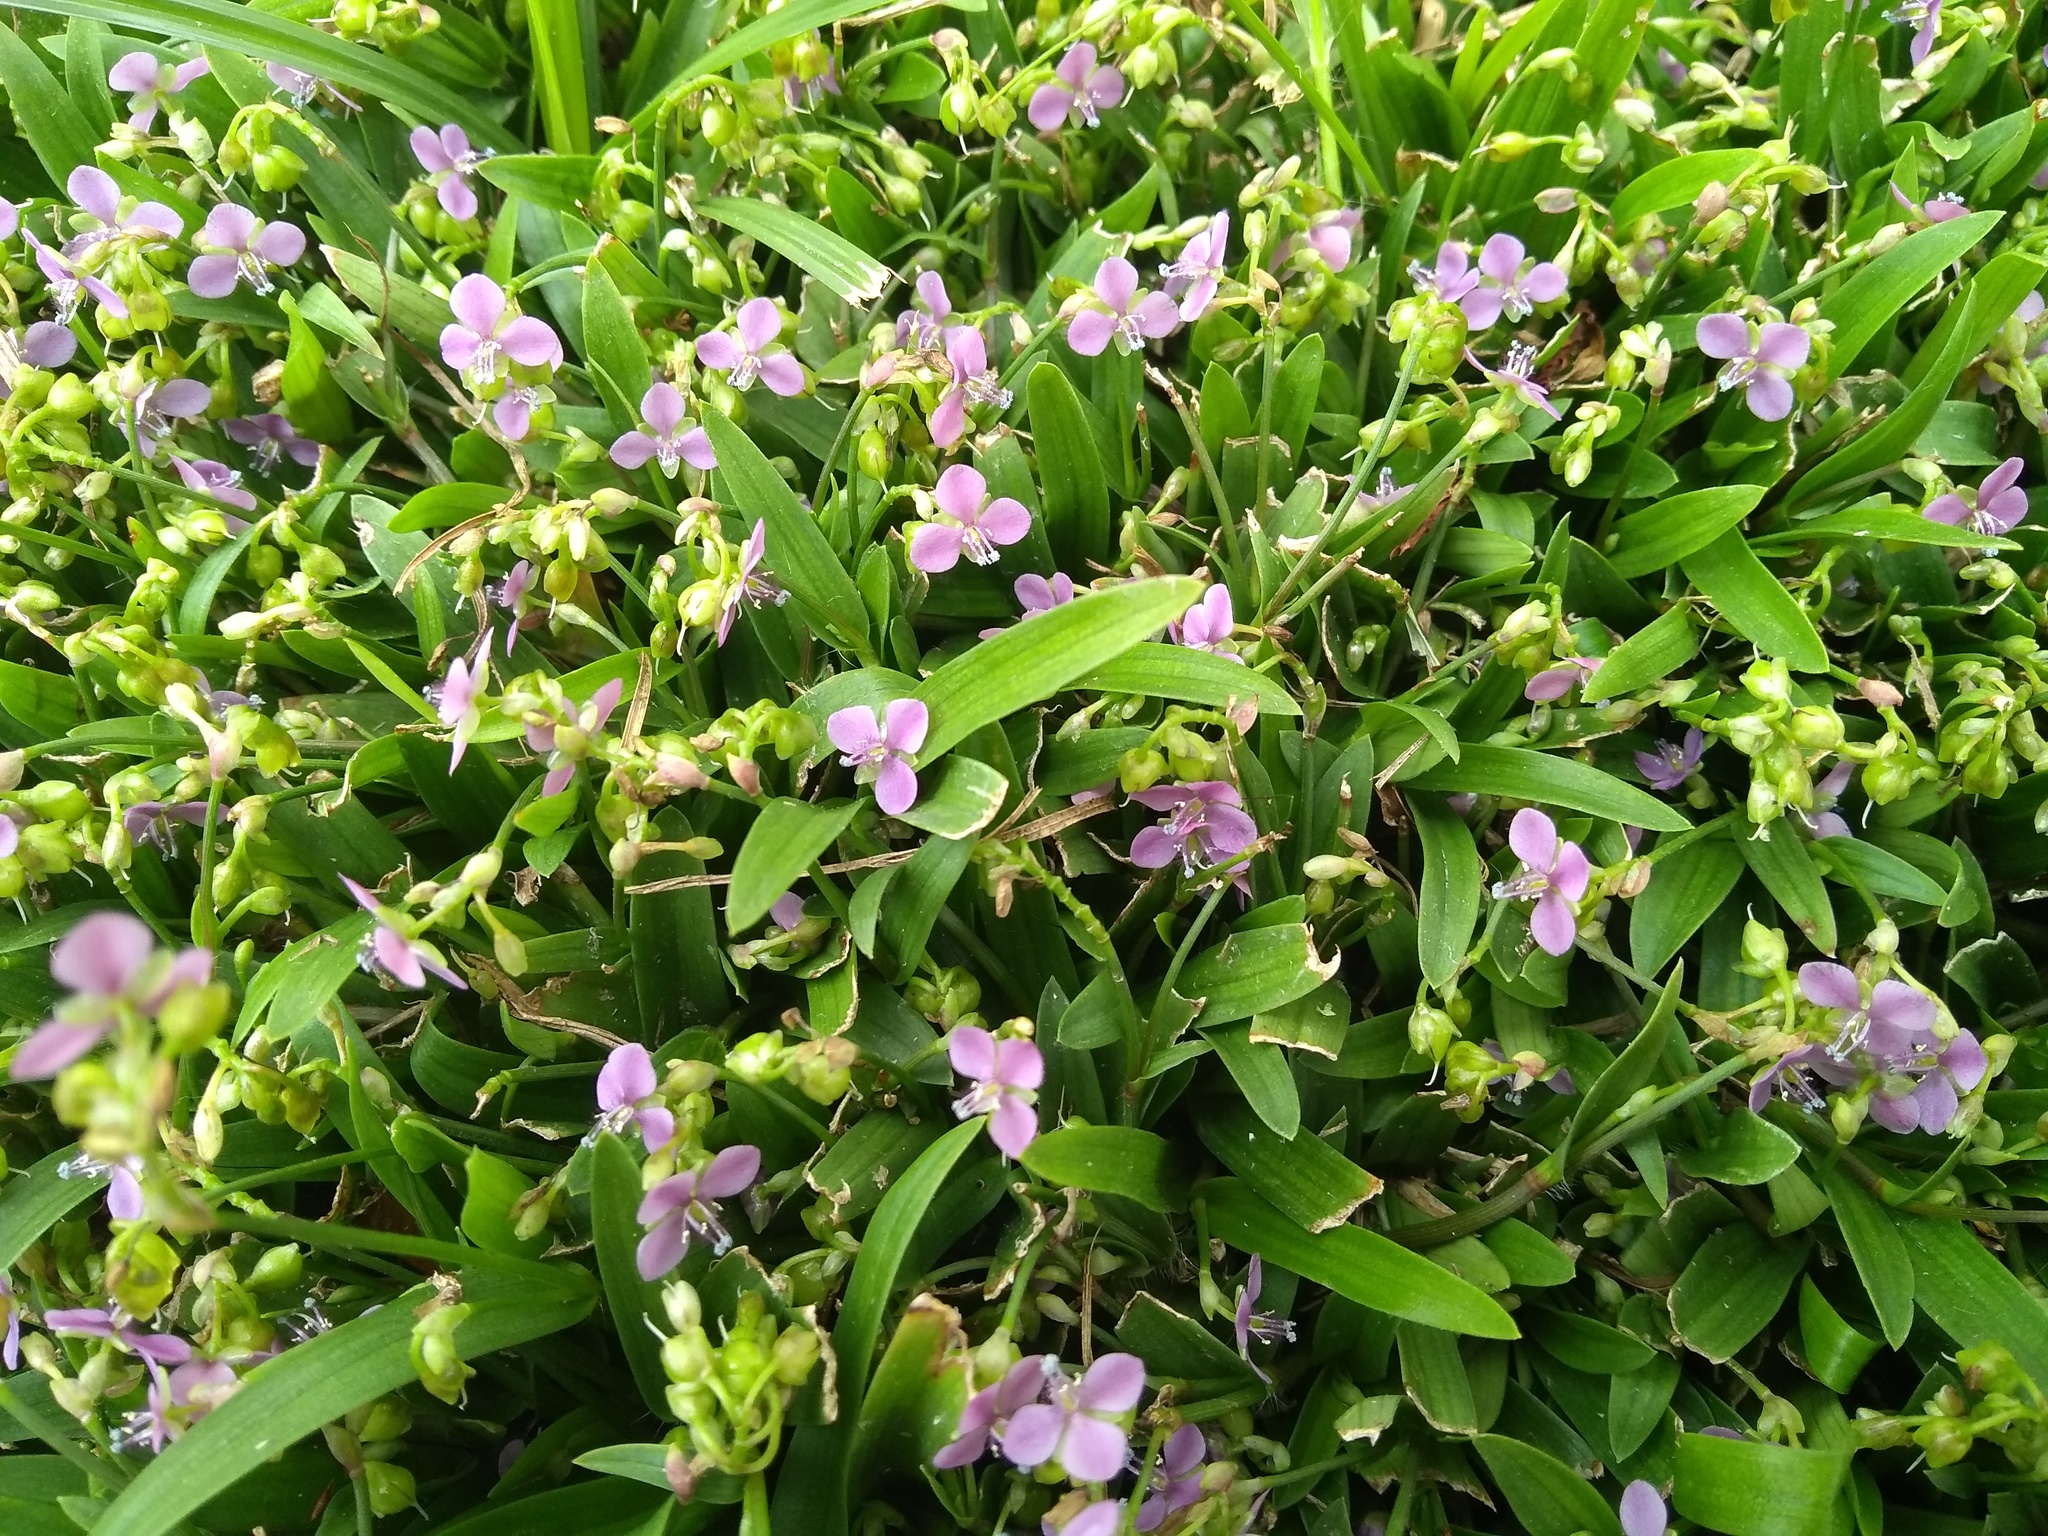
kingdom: Plantae
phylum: Tracheophyta
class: Liliopsida
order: Commelinales
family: Commelinaceae
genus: Murdannia
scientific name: Murdannia nudiflora
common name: Nakedstem dewflower
